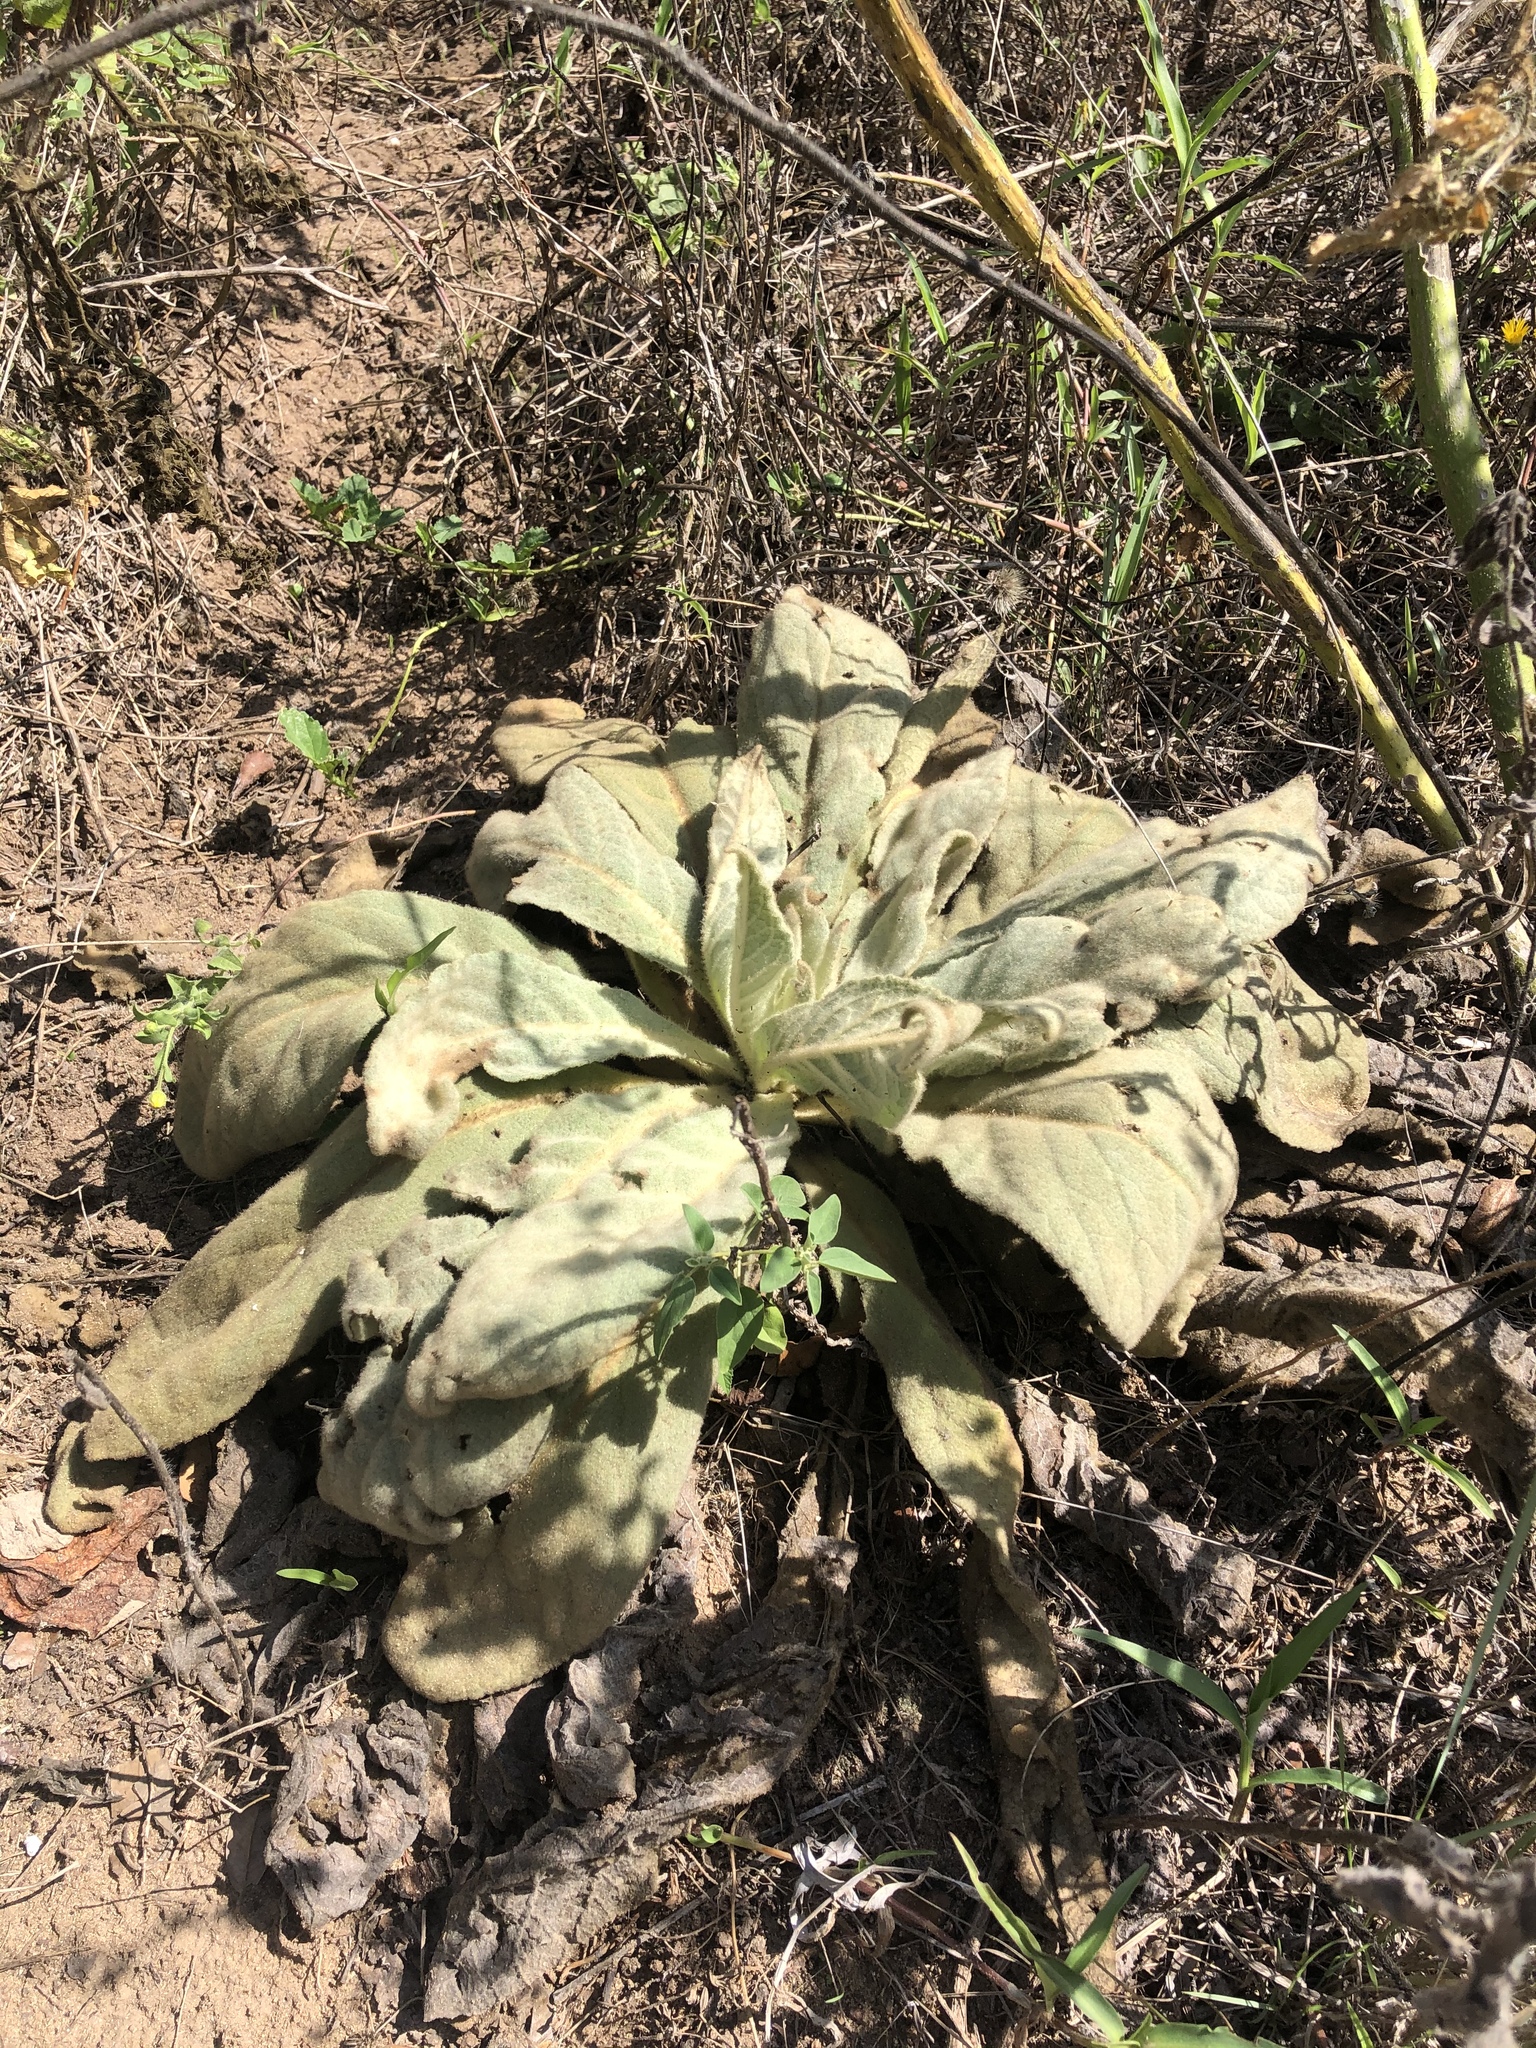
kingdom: Plantae
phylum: Tracheophyta
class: Magnoliopsida
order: Lamiales
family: Scrophulariaceae
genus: Verbascum
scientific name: Verbascum thapsus
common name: Common mullein
